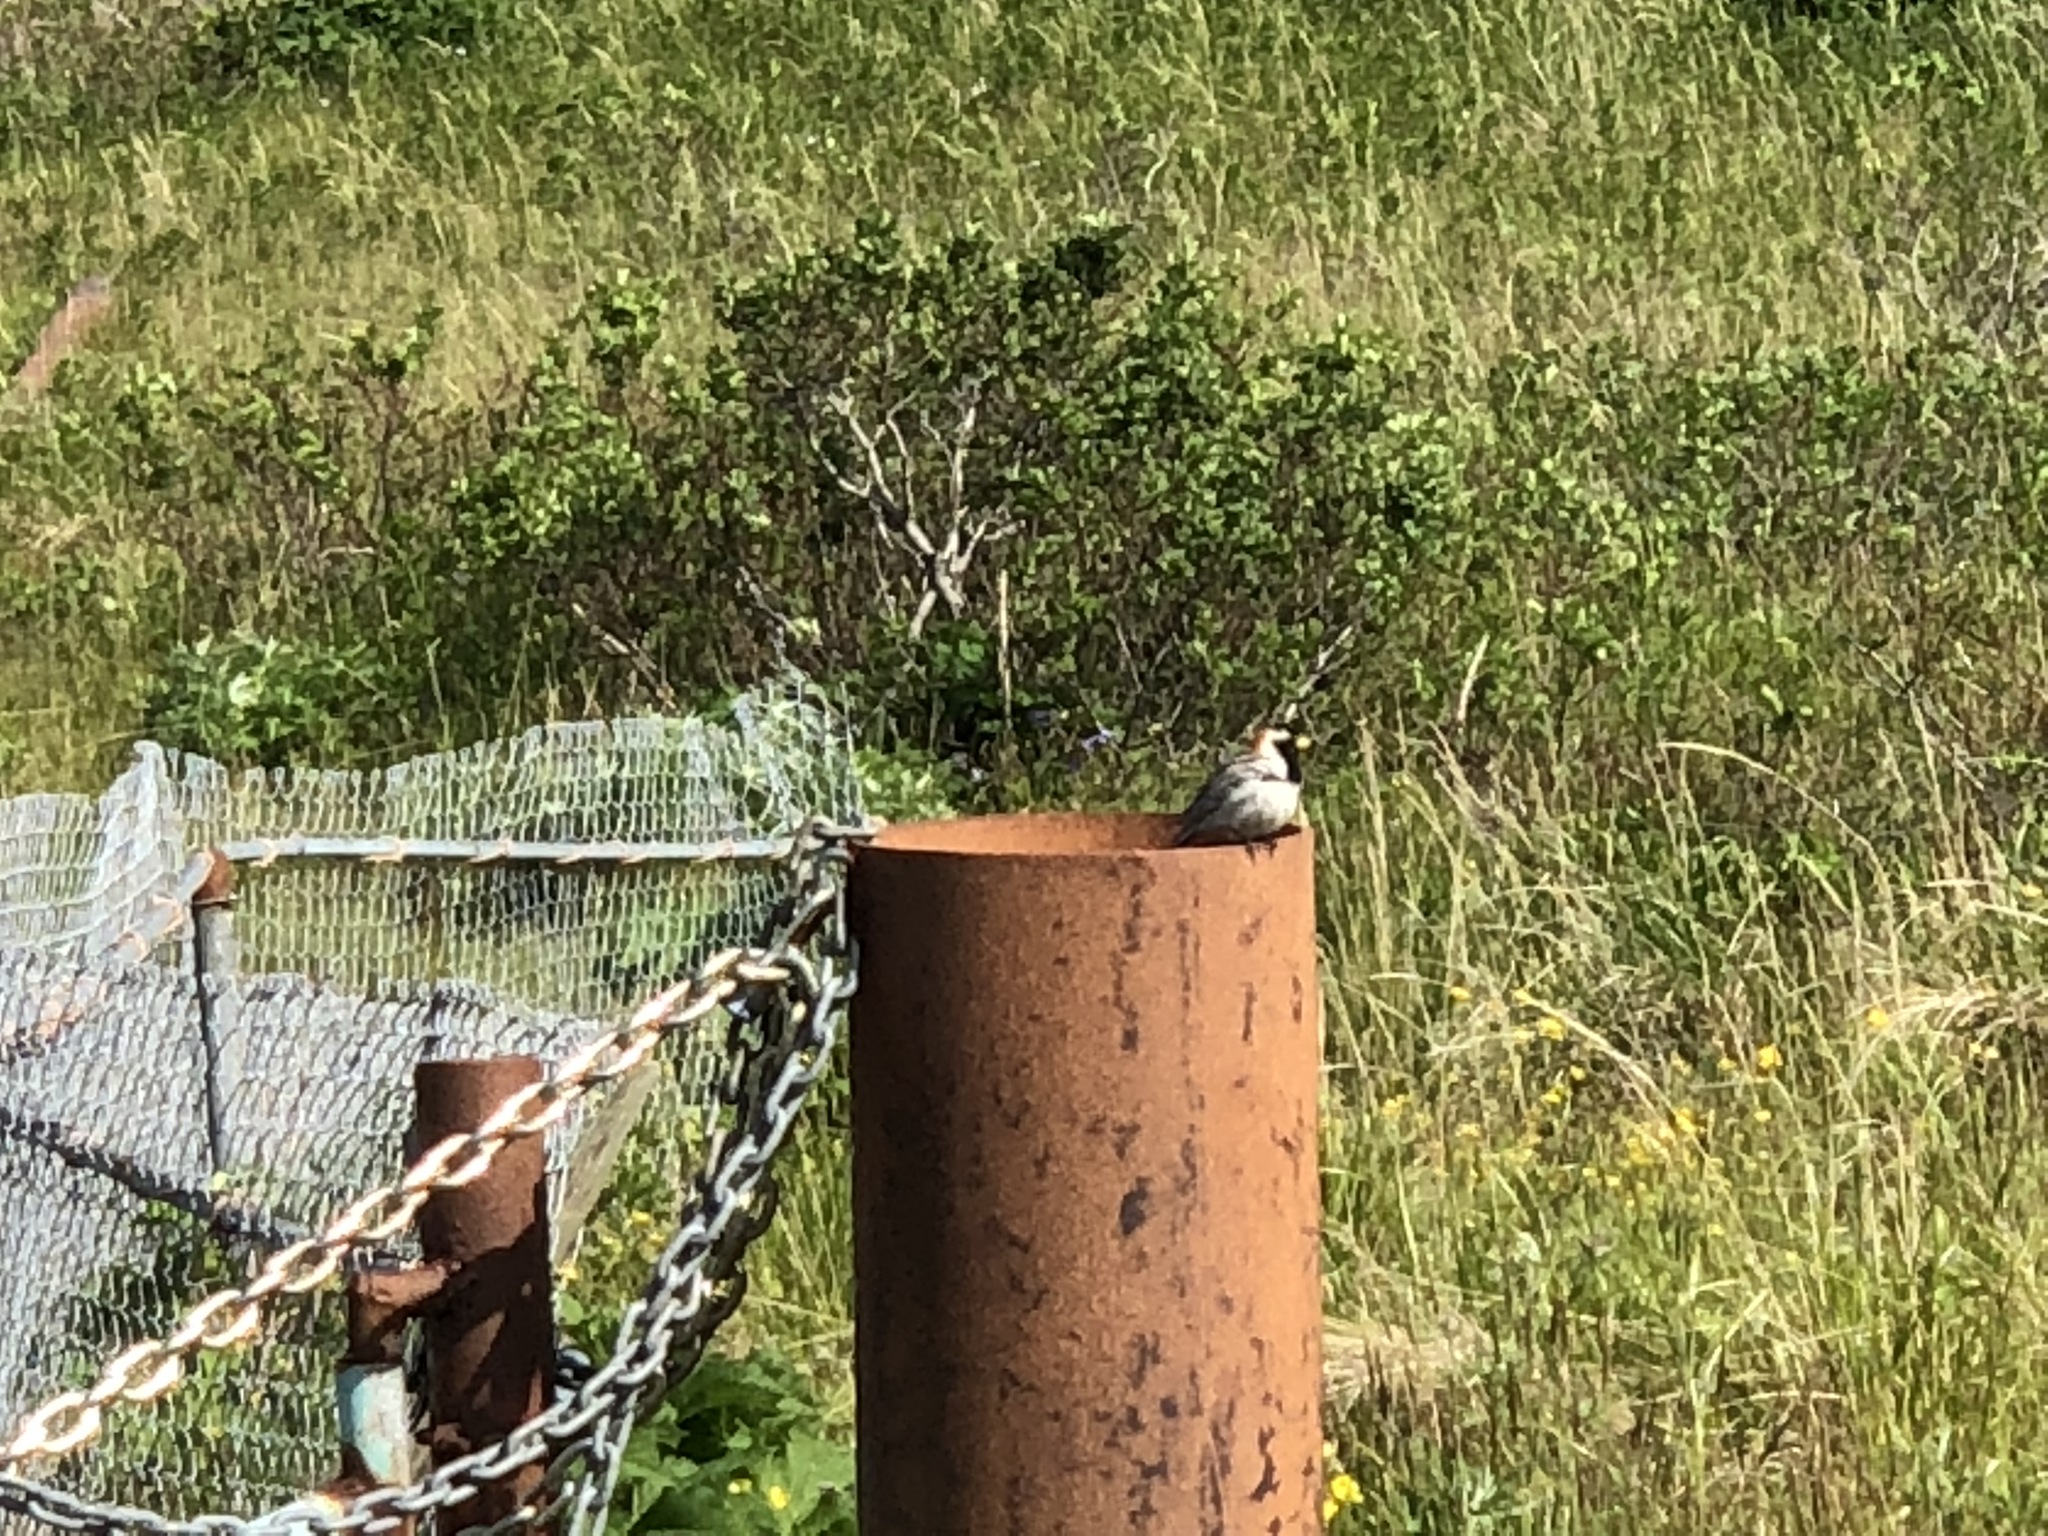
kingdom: Animalia
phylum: Chordata
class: Aves
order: Passeriformes
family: Calcariidae
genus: Calcarius
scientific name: Calcarius lapponicus
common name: Lapland longspur
